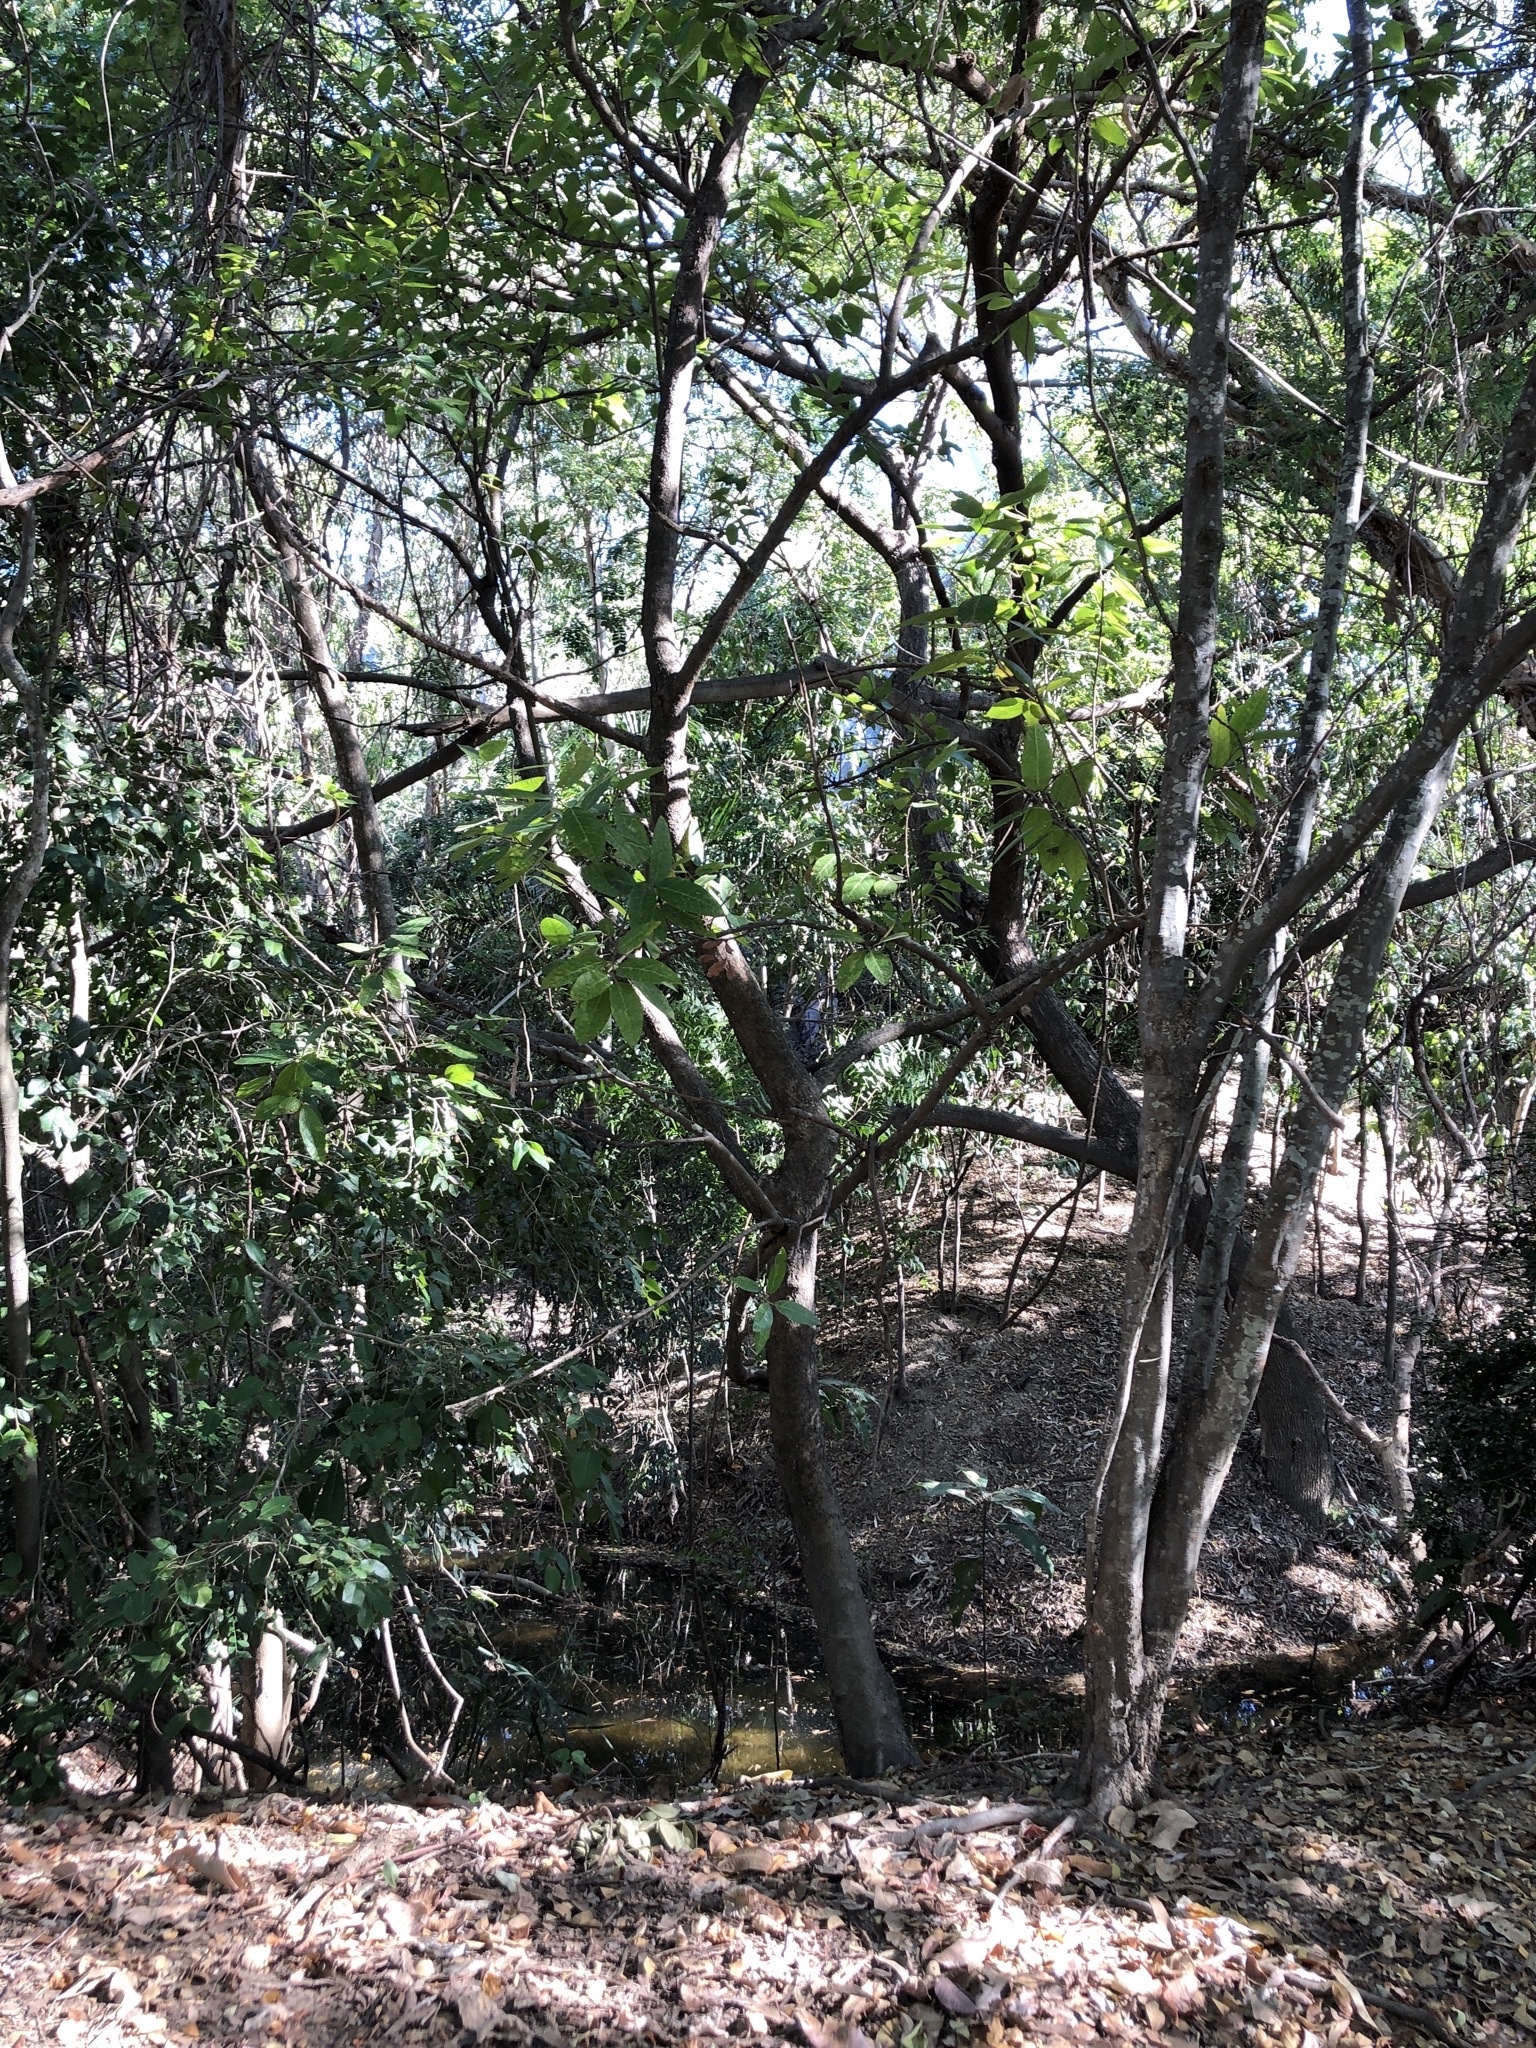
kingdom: Plantae
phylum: Tracheophyta
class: Magnoliopsida
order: Rosales
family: Moraceae
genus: Ficus
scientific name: Ficus opposita
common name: Figwood
